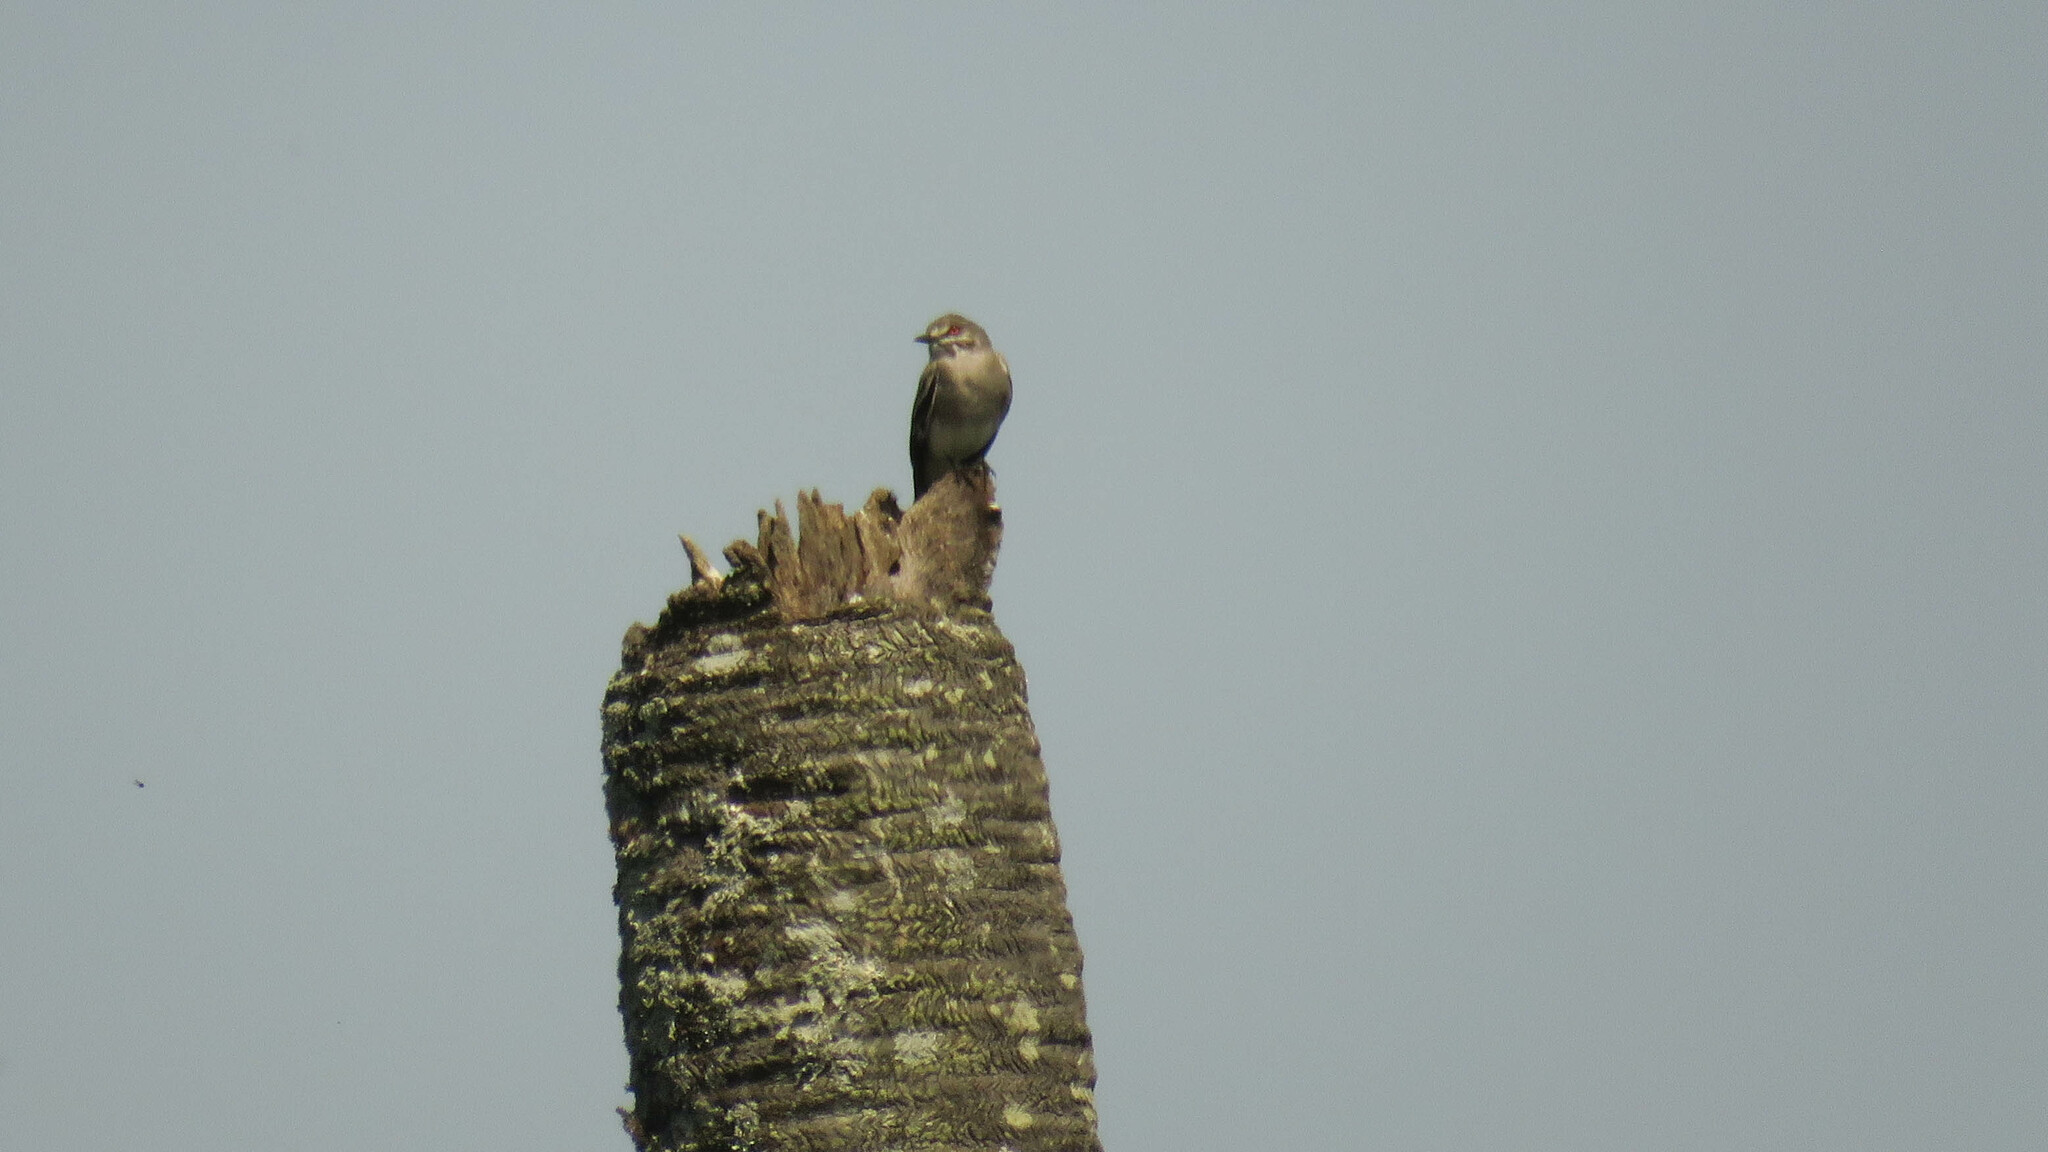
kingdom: Animalia
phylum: Chordata
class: Aves
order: Passeriformes
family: Tyrannidae
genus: Xolmis
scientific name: Xolmis cinereus
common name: Grey monjita
